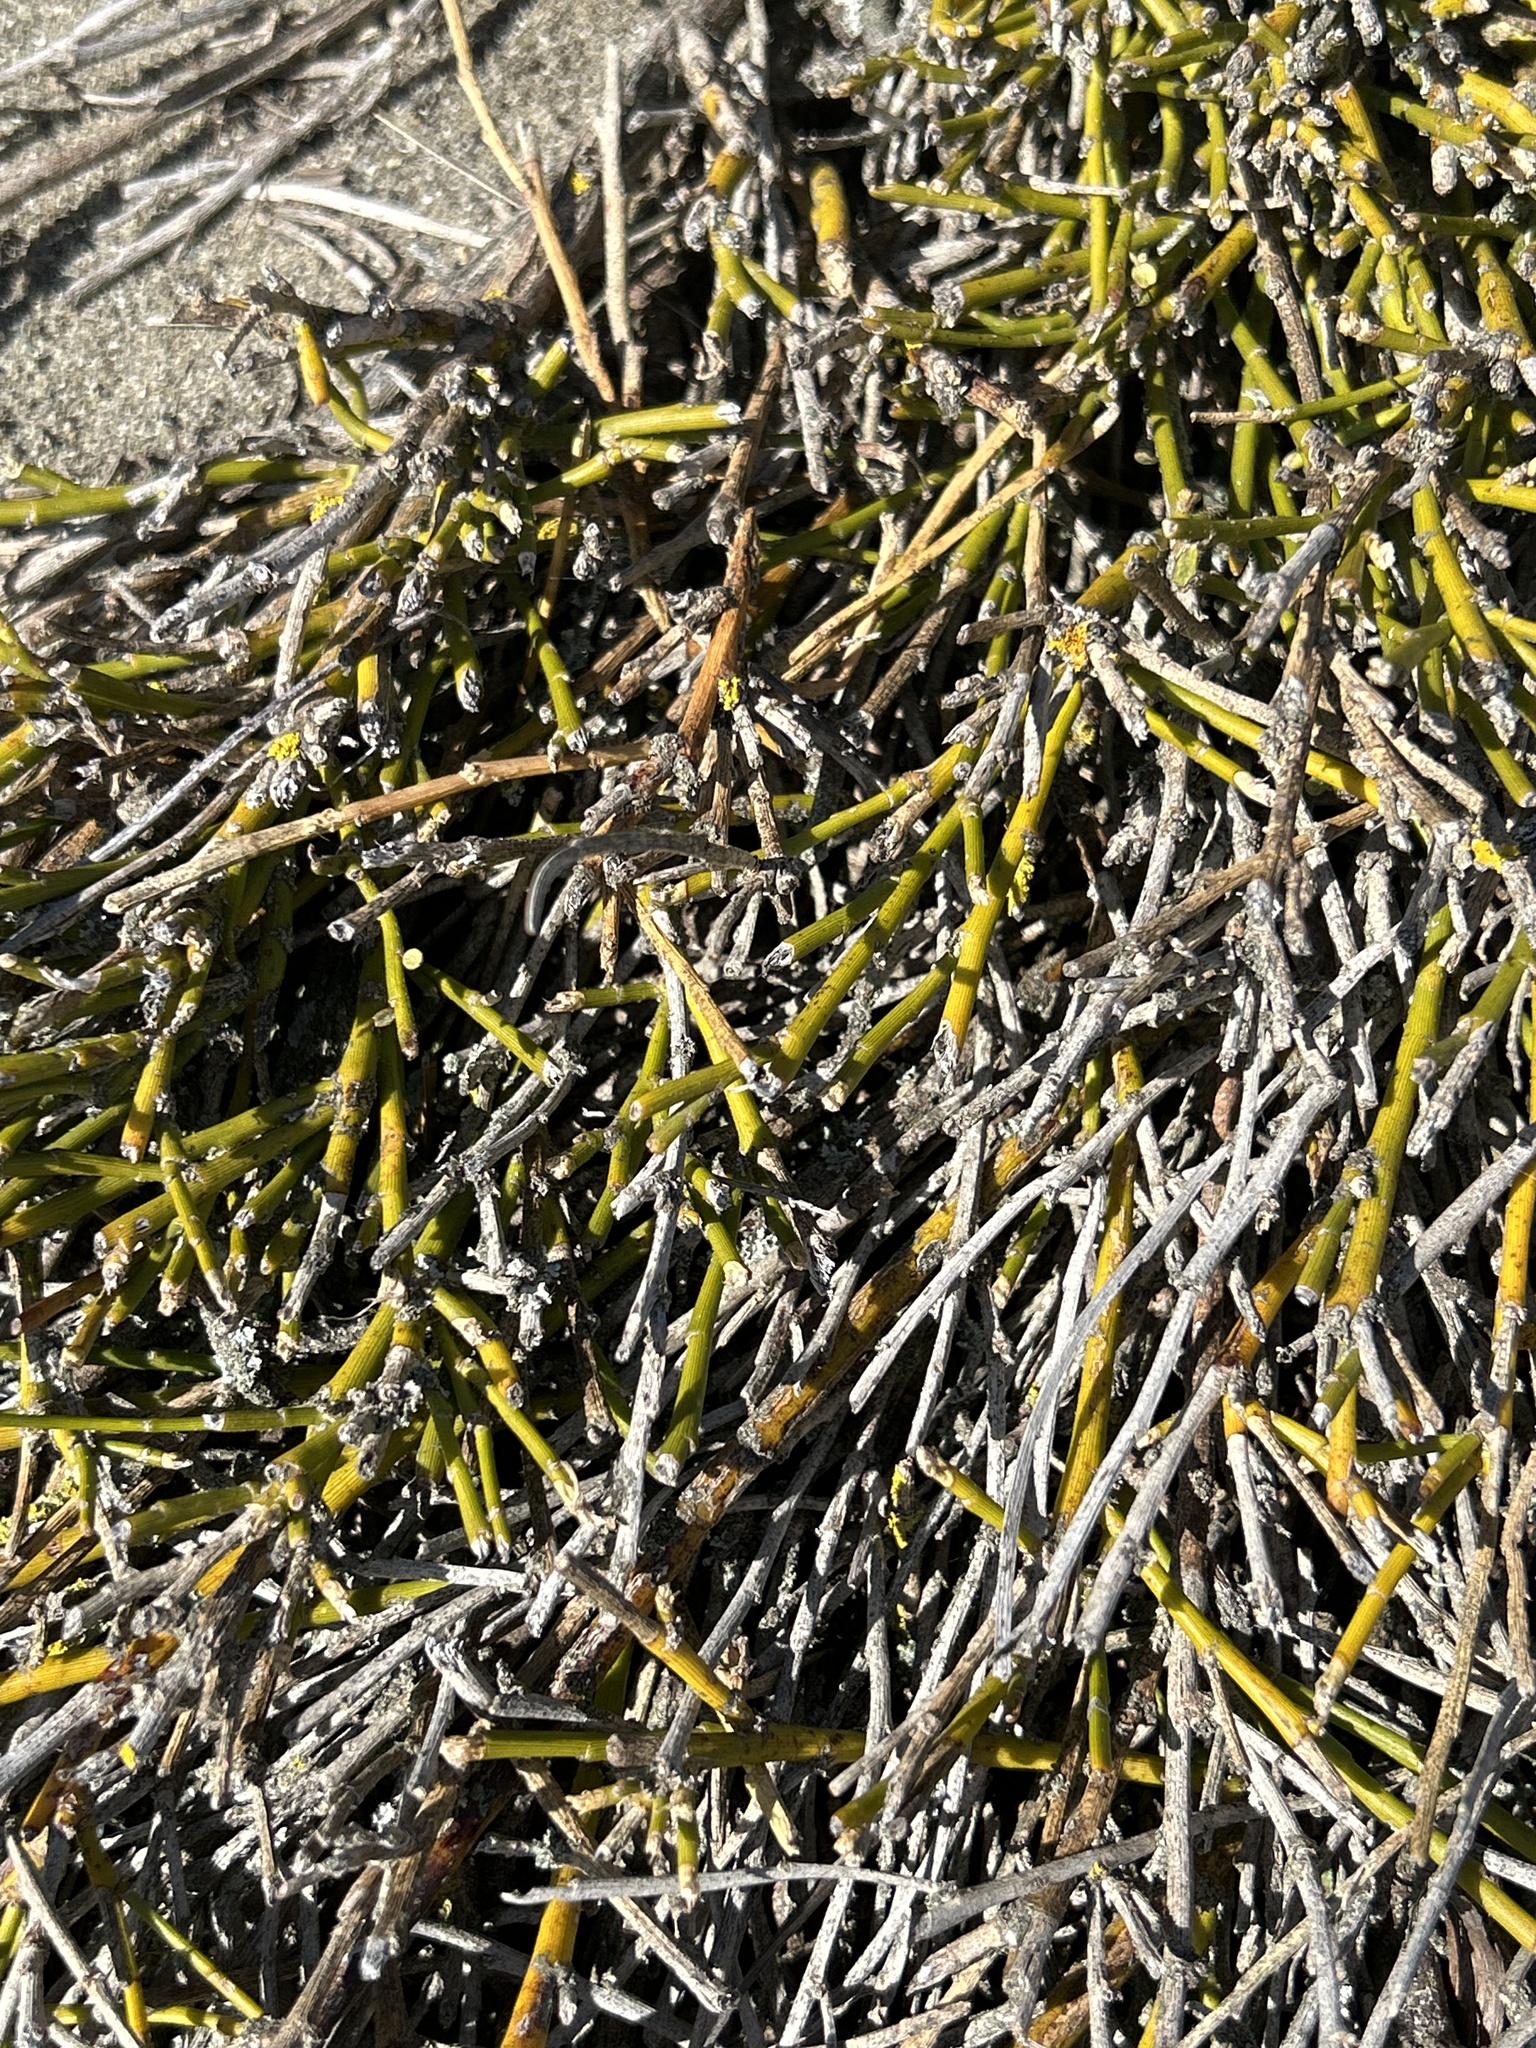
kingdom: Plantae
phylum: Tracheophyta
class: Magnoliopsida
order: Fabales
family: Fabaceae
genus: Carmichaelia
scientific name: Carmichaelia appressa
